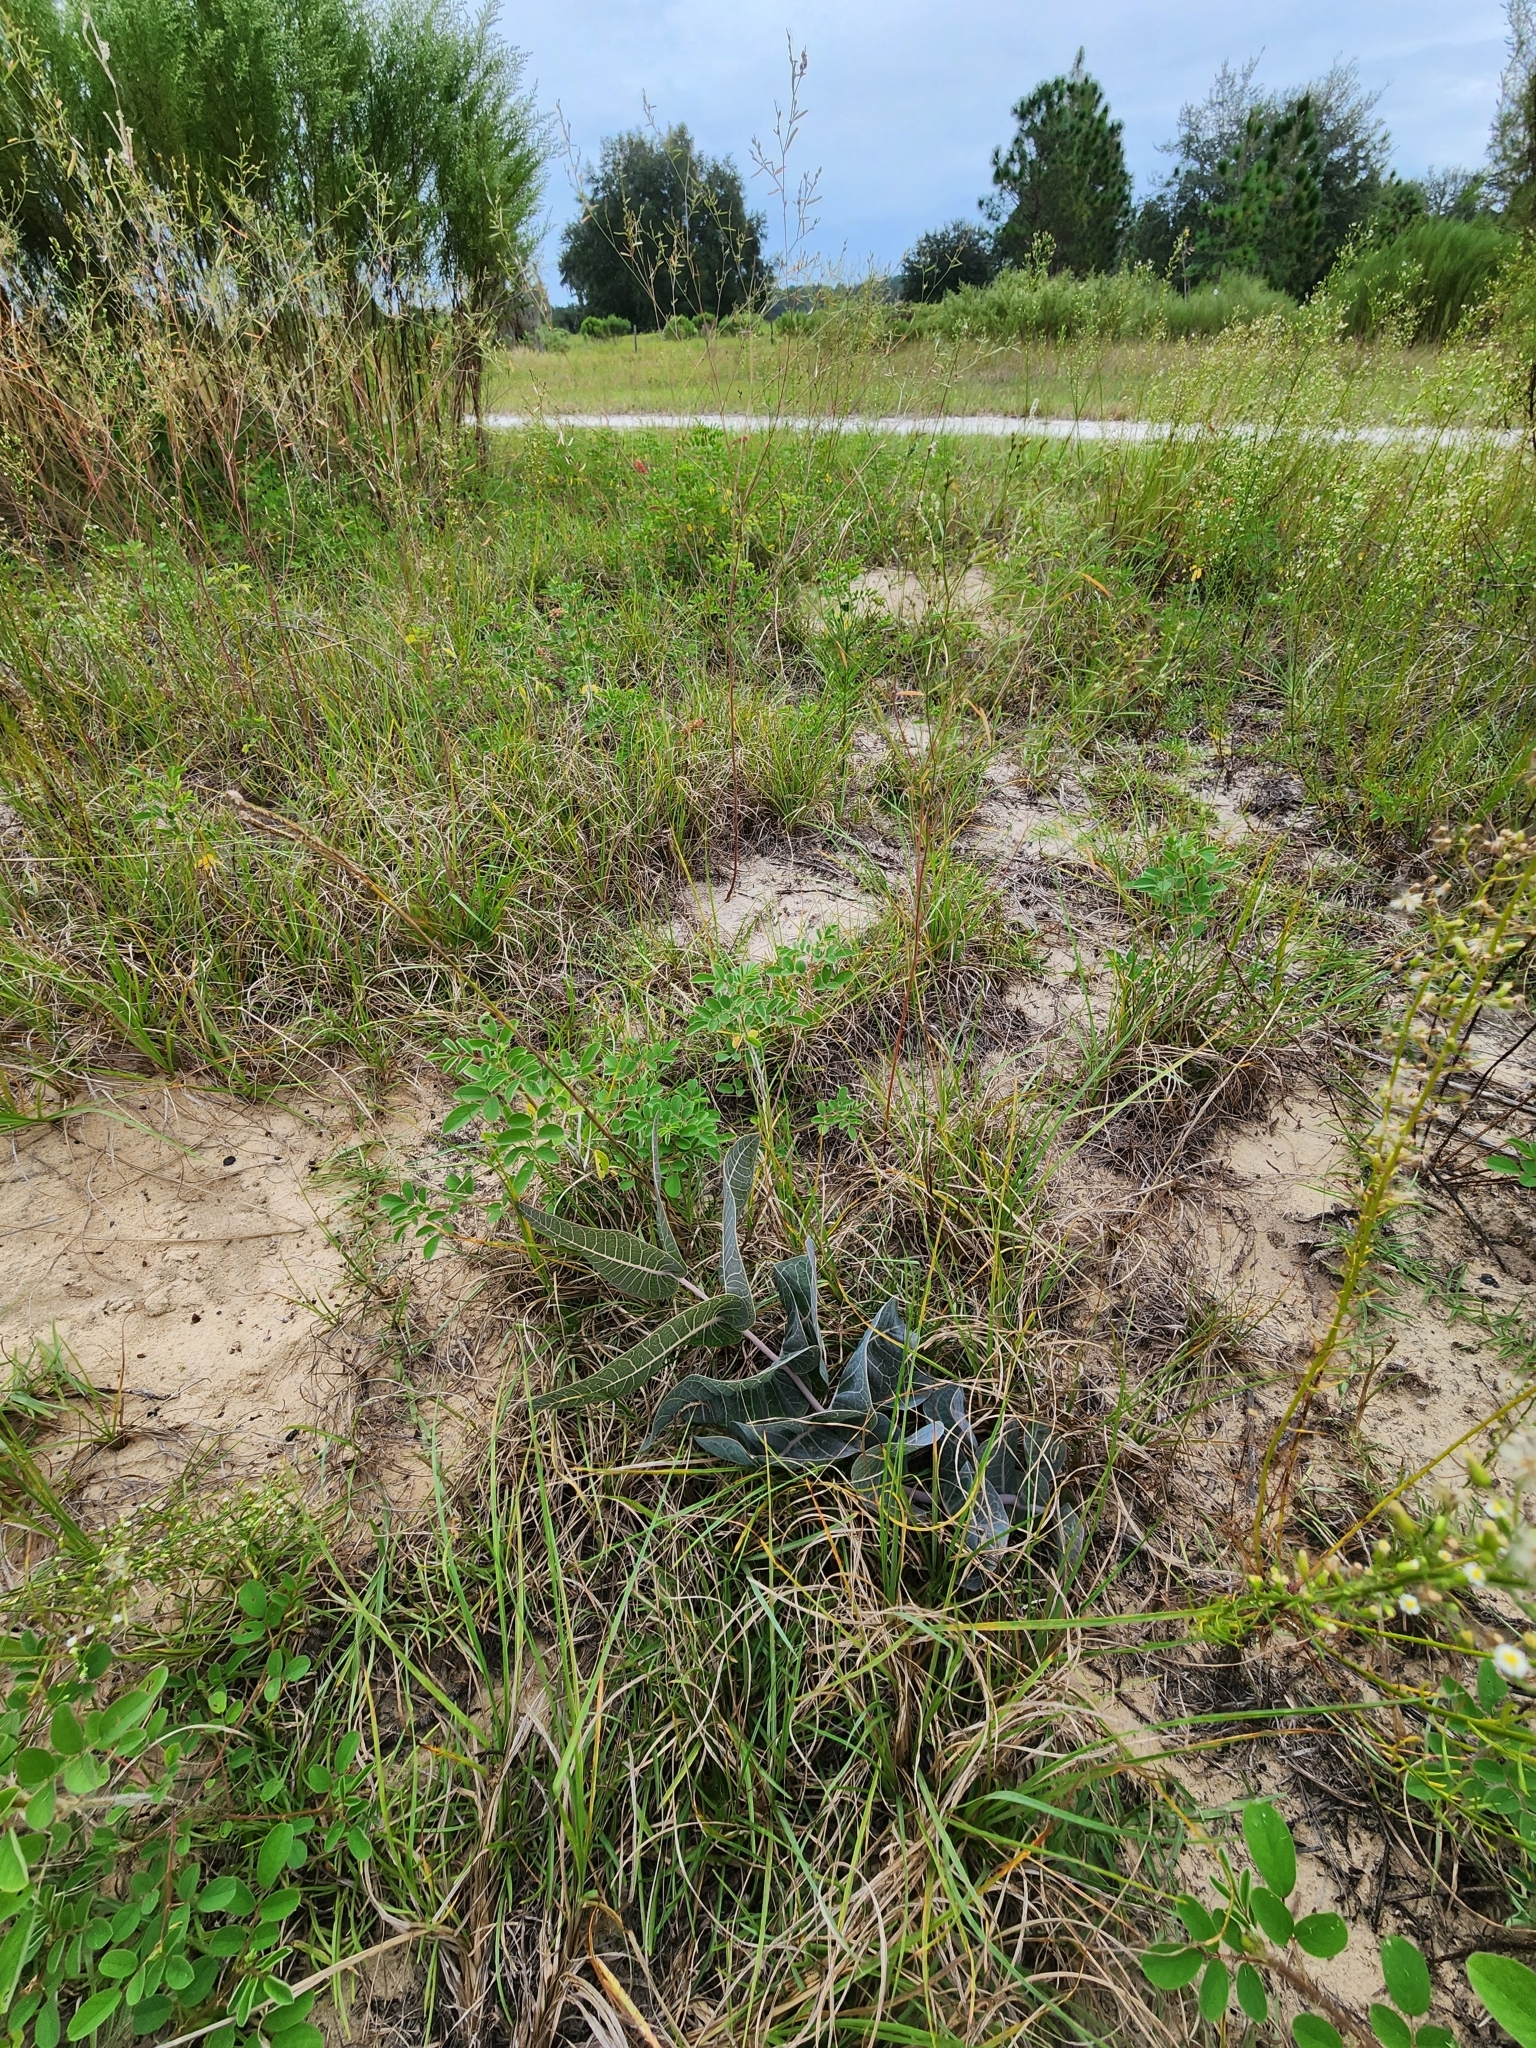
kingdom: Plantae
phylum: Tracheophyta
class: Magnoliopsida
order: Gentianales
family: Apocynaceae
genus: Asclepias
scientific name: Asclepias humistrata
